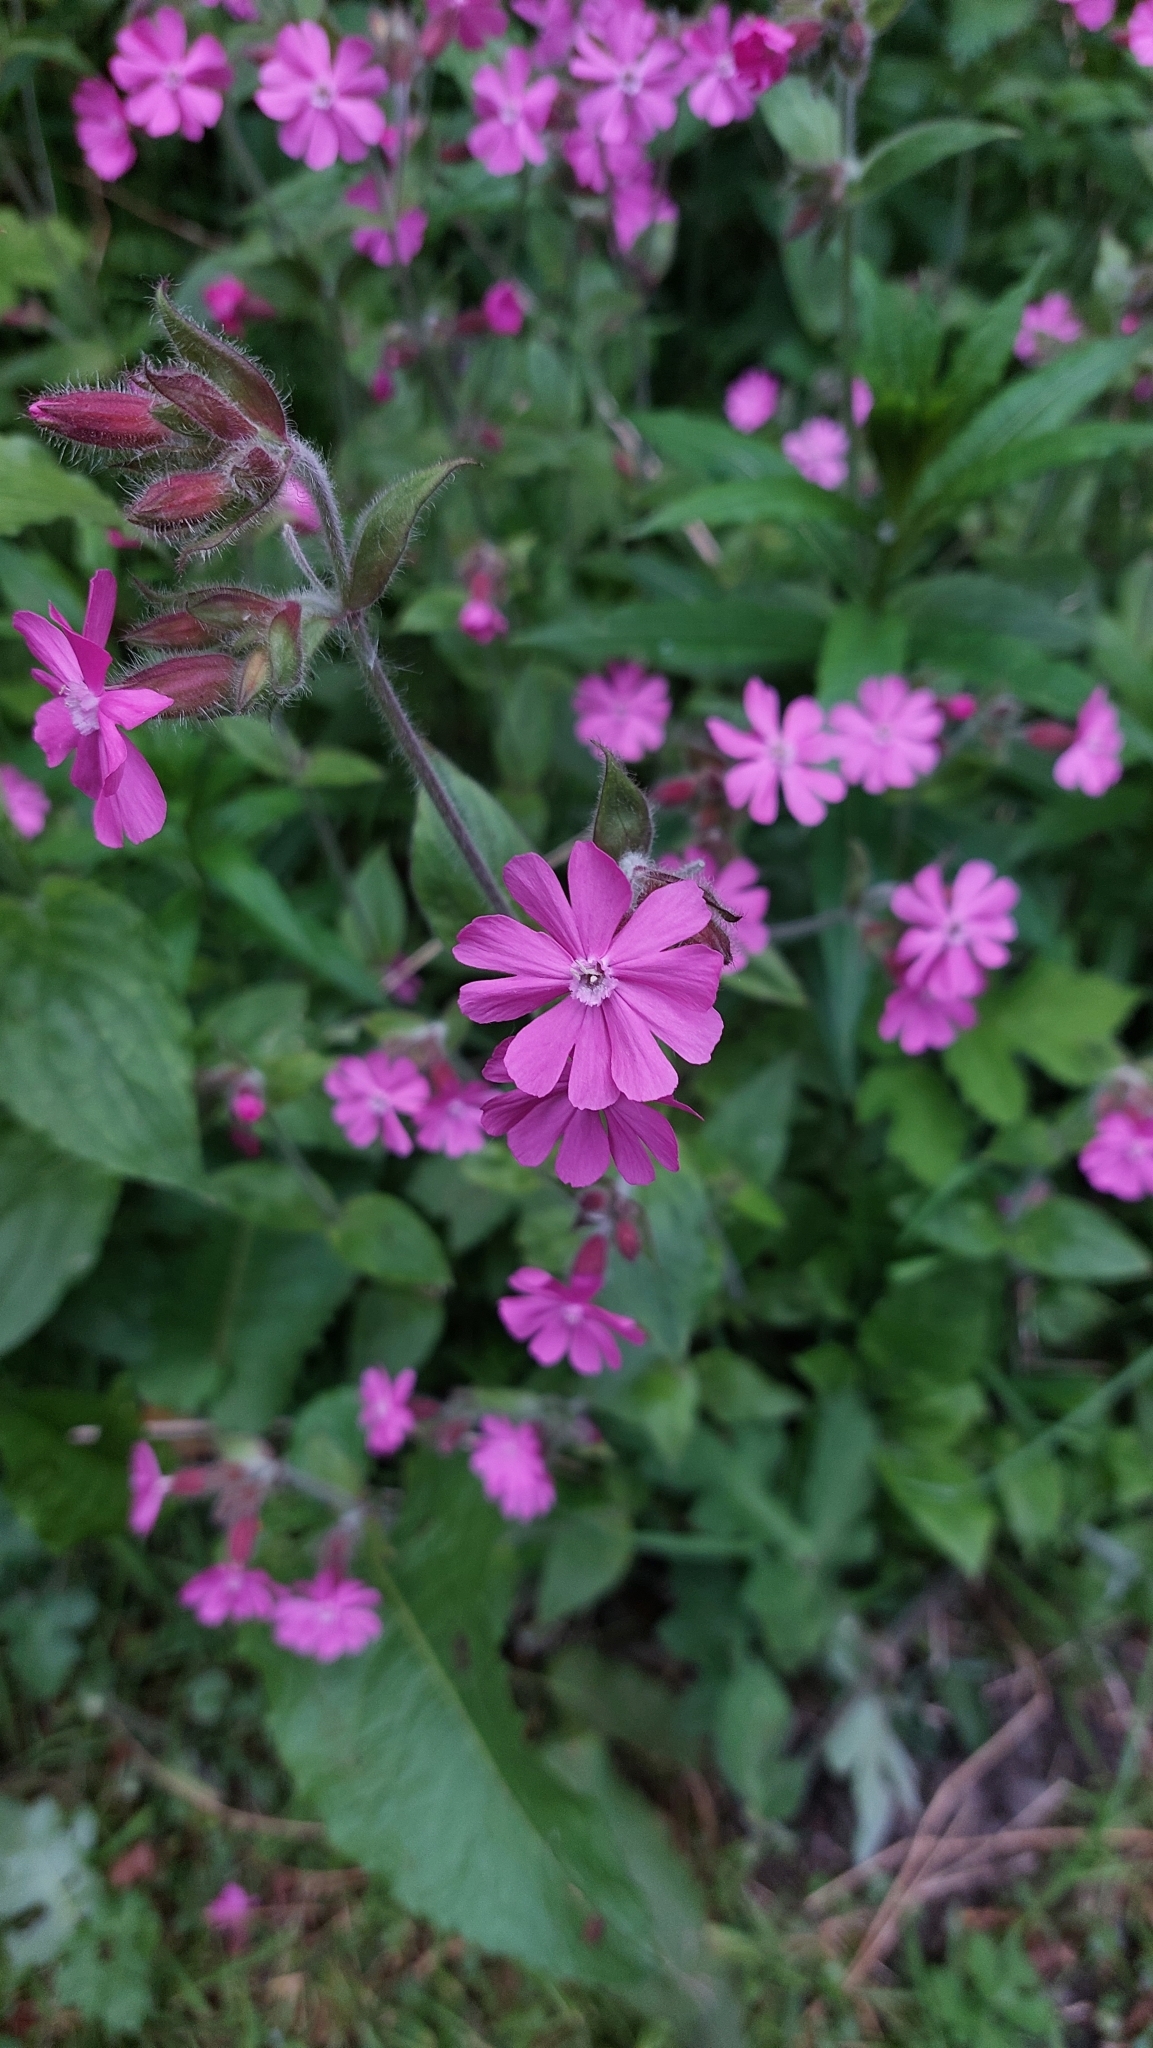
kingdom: Plantae
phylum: Tracheophyta
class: Magnoliopsida
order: Caryophyllales
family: Caryophyllaceae
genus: Silene
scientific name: Silene dioica
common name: Red campion
